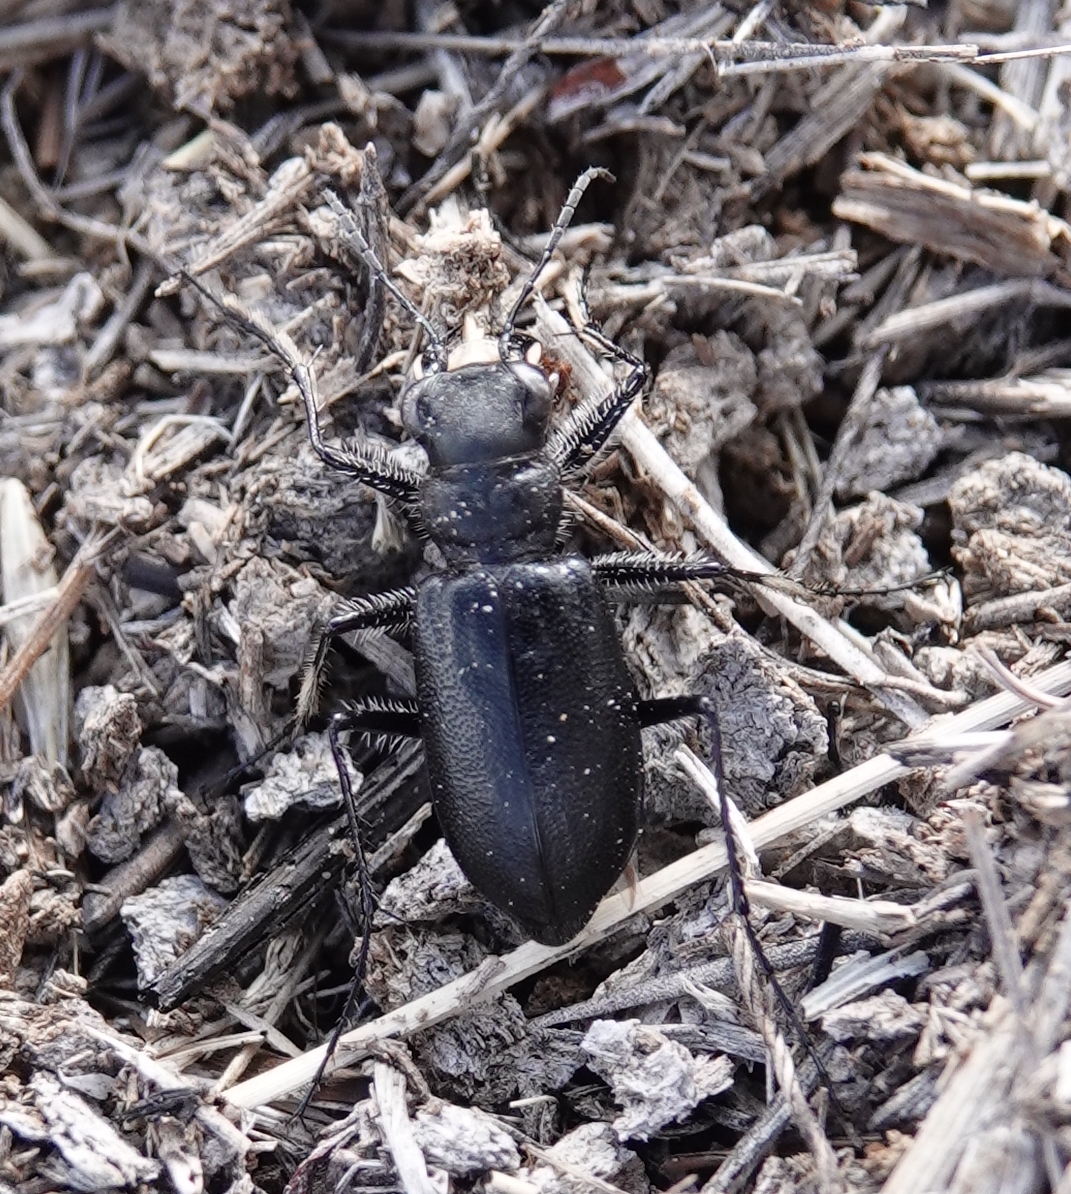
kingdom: Animalia
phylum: Arthropoda
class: Insecta
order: Coleoptera
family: Carabidae
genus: Cicindela
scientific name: Cicindela nebraskana
